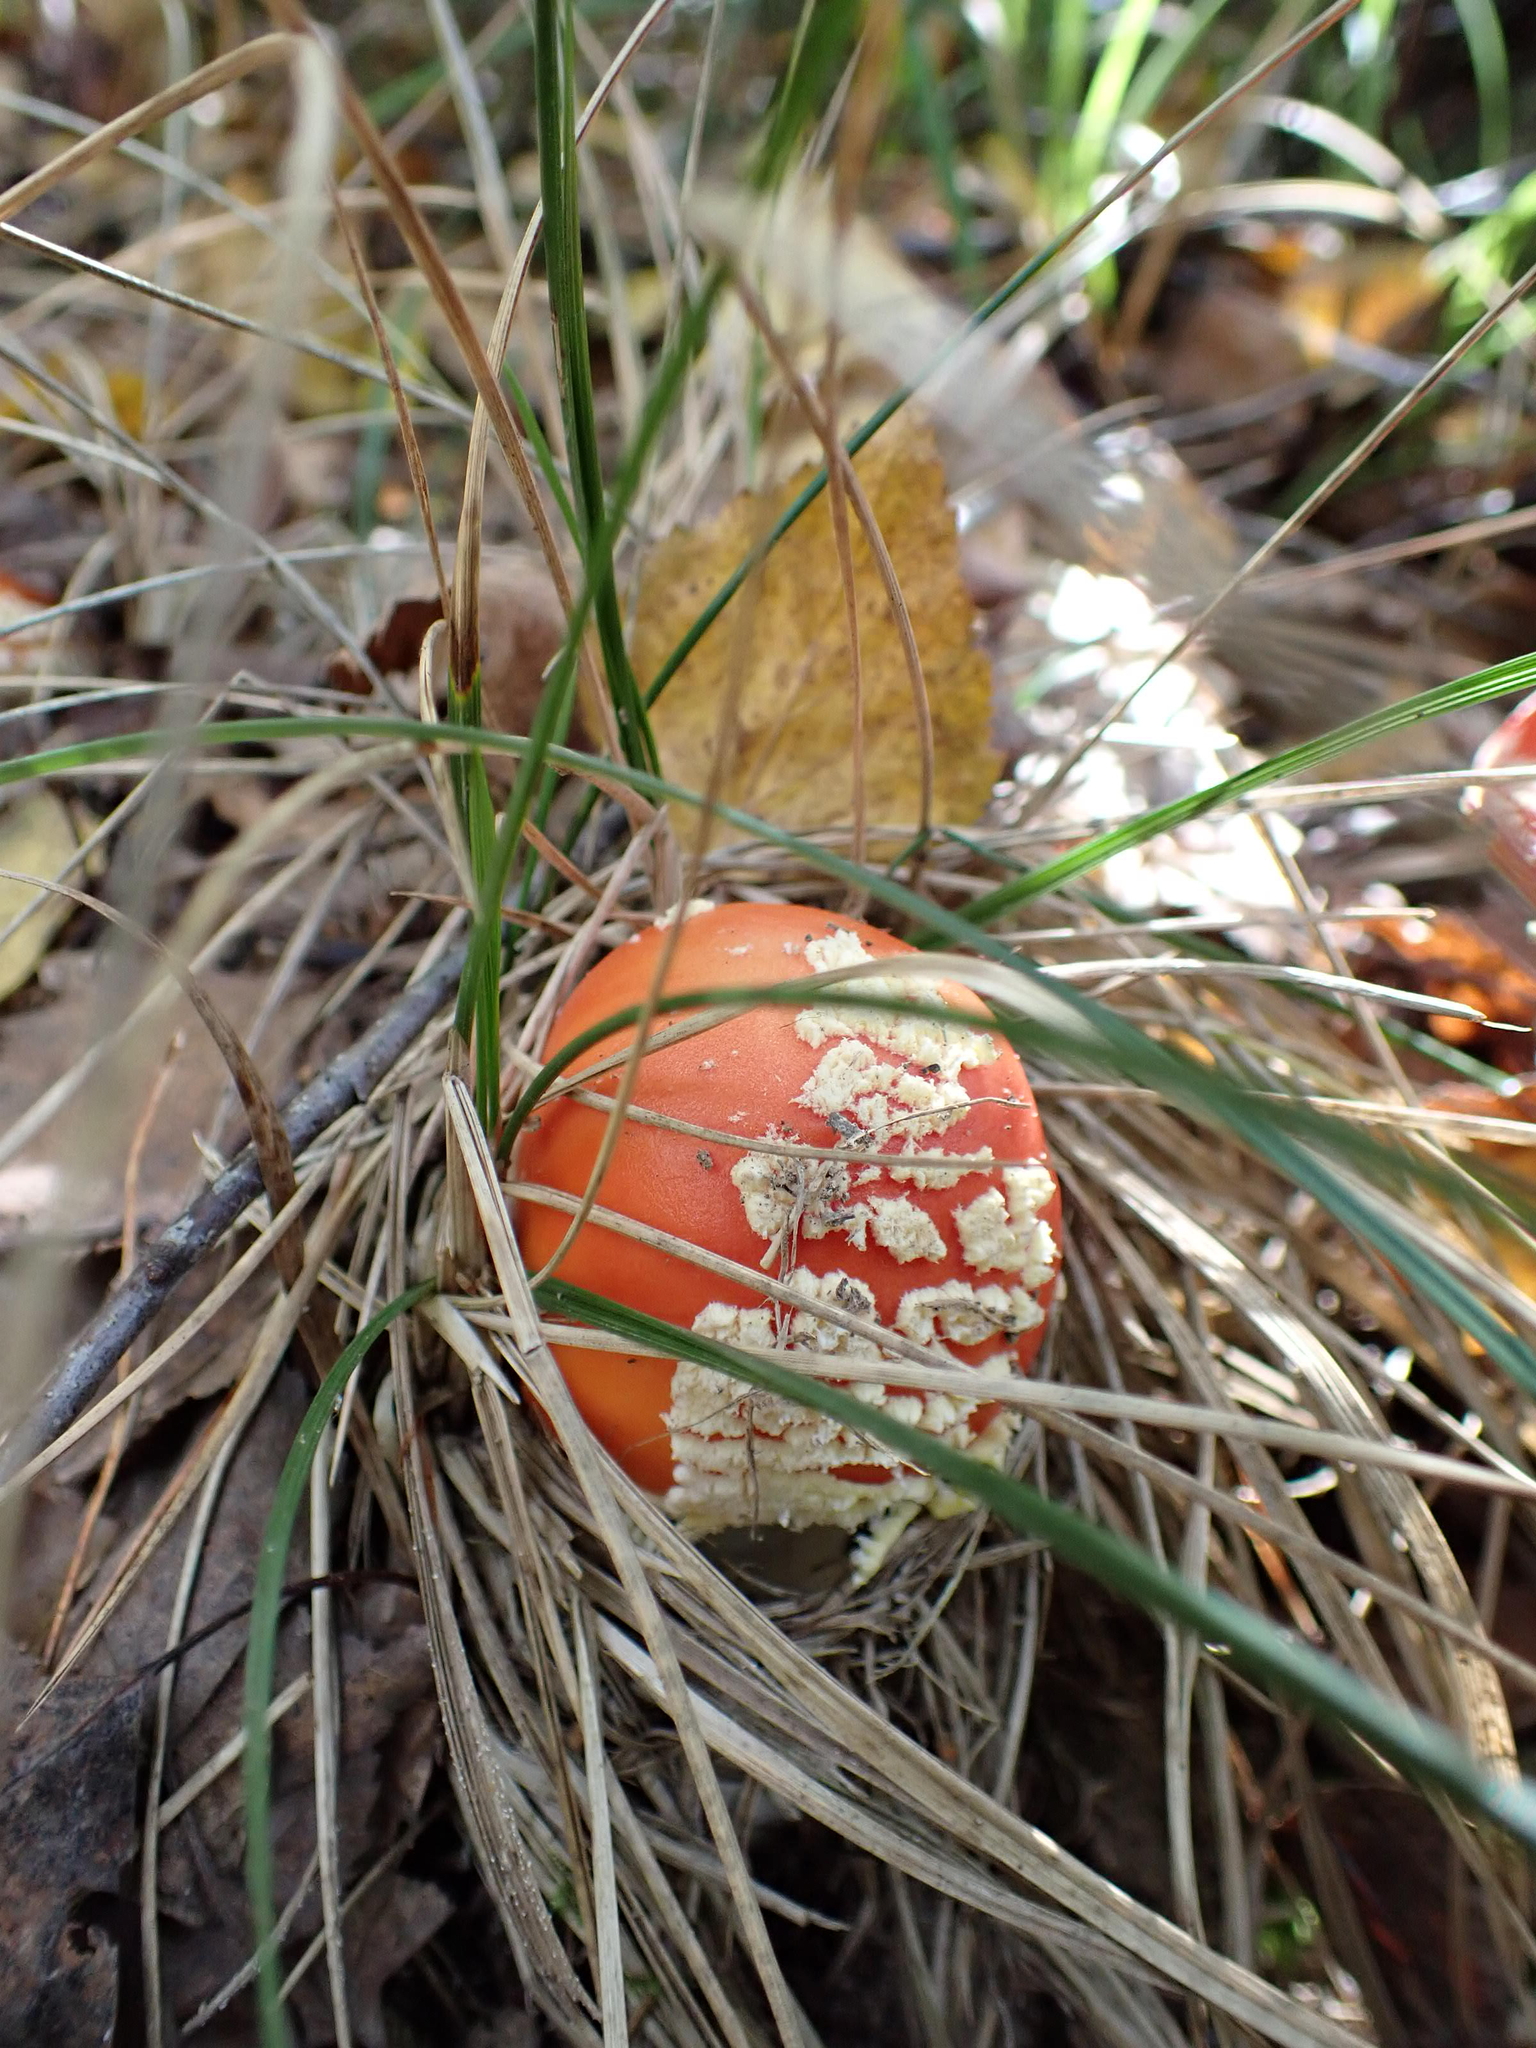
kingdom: Fungi
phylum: Basidiomycota
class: Agaricomycetes
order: Agaricales
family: Amanitaceae
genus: Amanita
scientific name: Amanita muscaria
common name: Fly agaric
